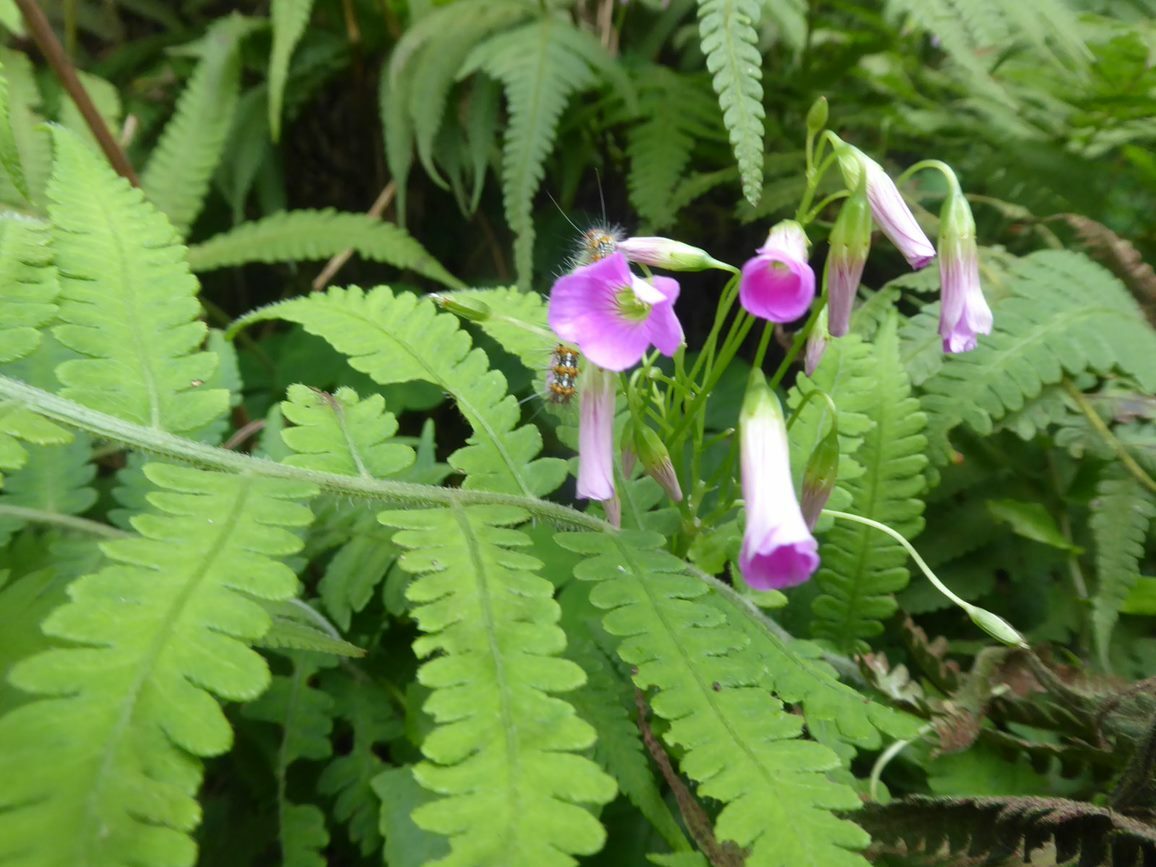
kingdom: Plantae
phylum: Tracheophyta
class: Magnoliopsida
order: Oxalidales
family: Oxalidaceae
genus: Oxalis
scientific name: Oxalis debilis
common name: Large-flowered pink-sorrel
